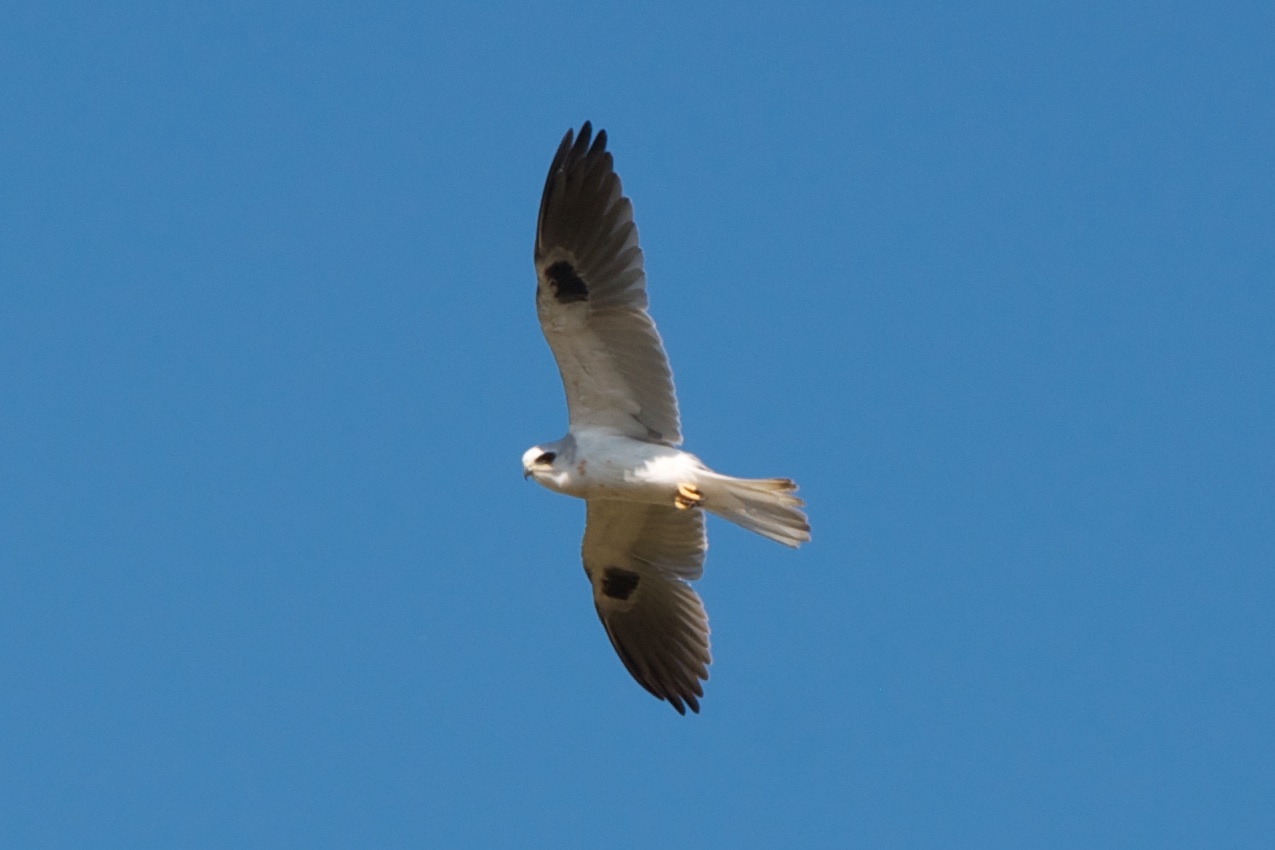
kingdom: Animalia
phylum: Chordata
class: Aves
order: Accipitriformes
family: Accipitridae
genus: Elanus
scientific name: Elanus leucurus
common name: White-tailed kite
